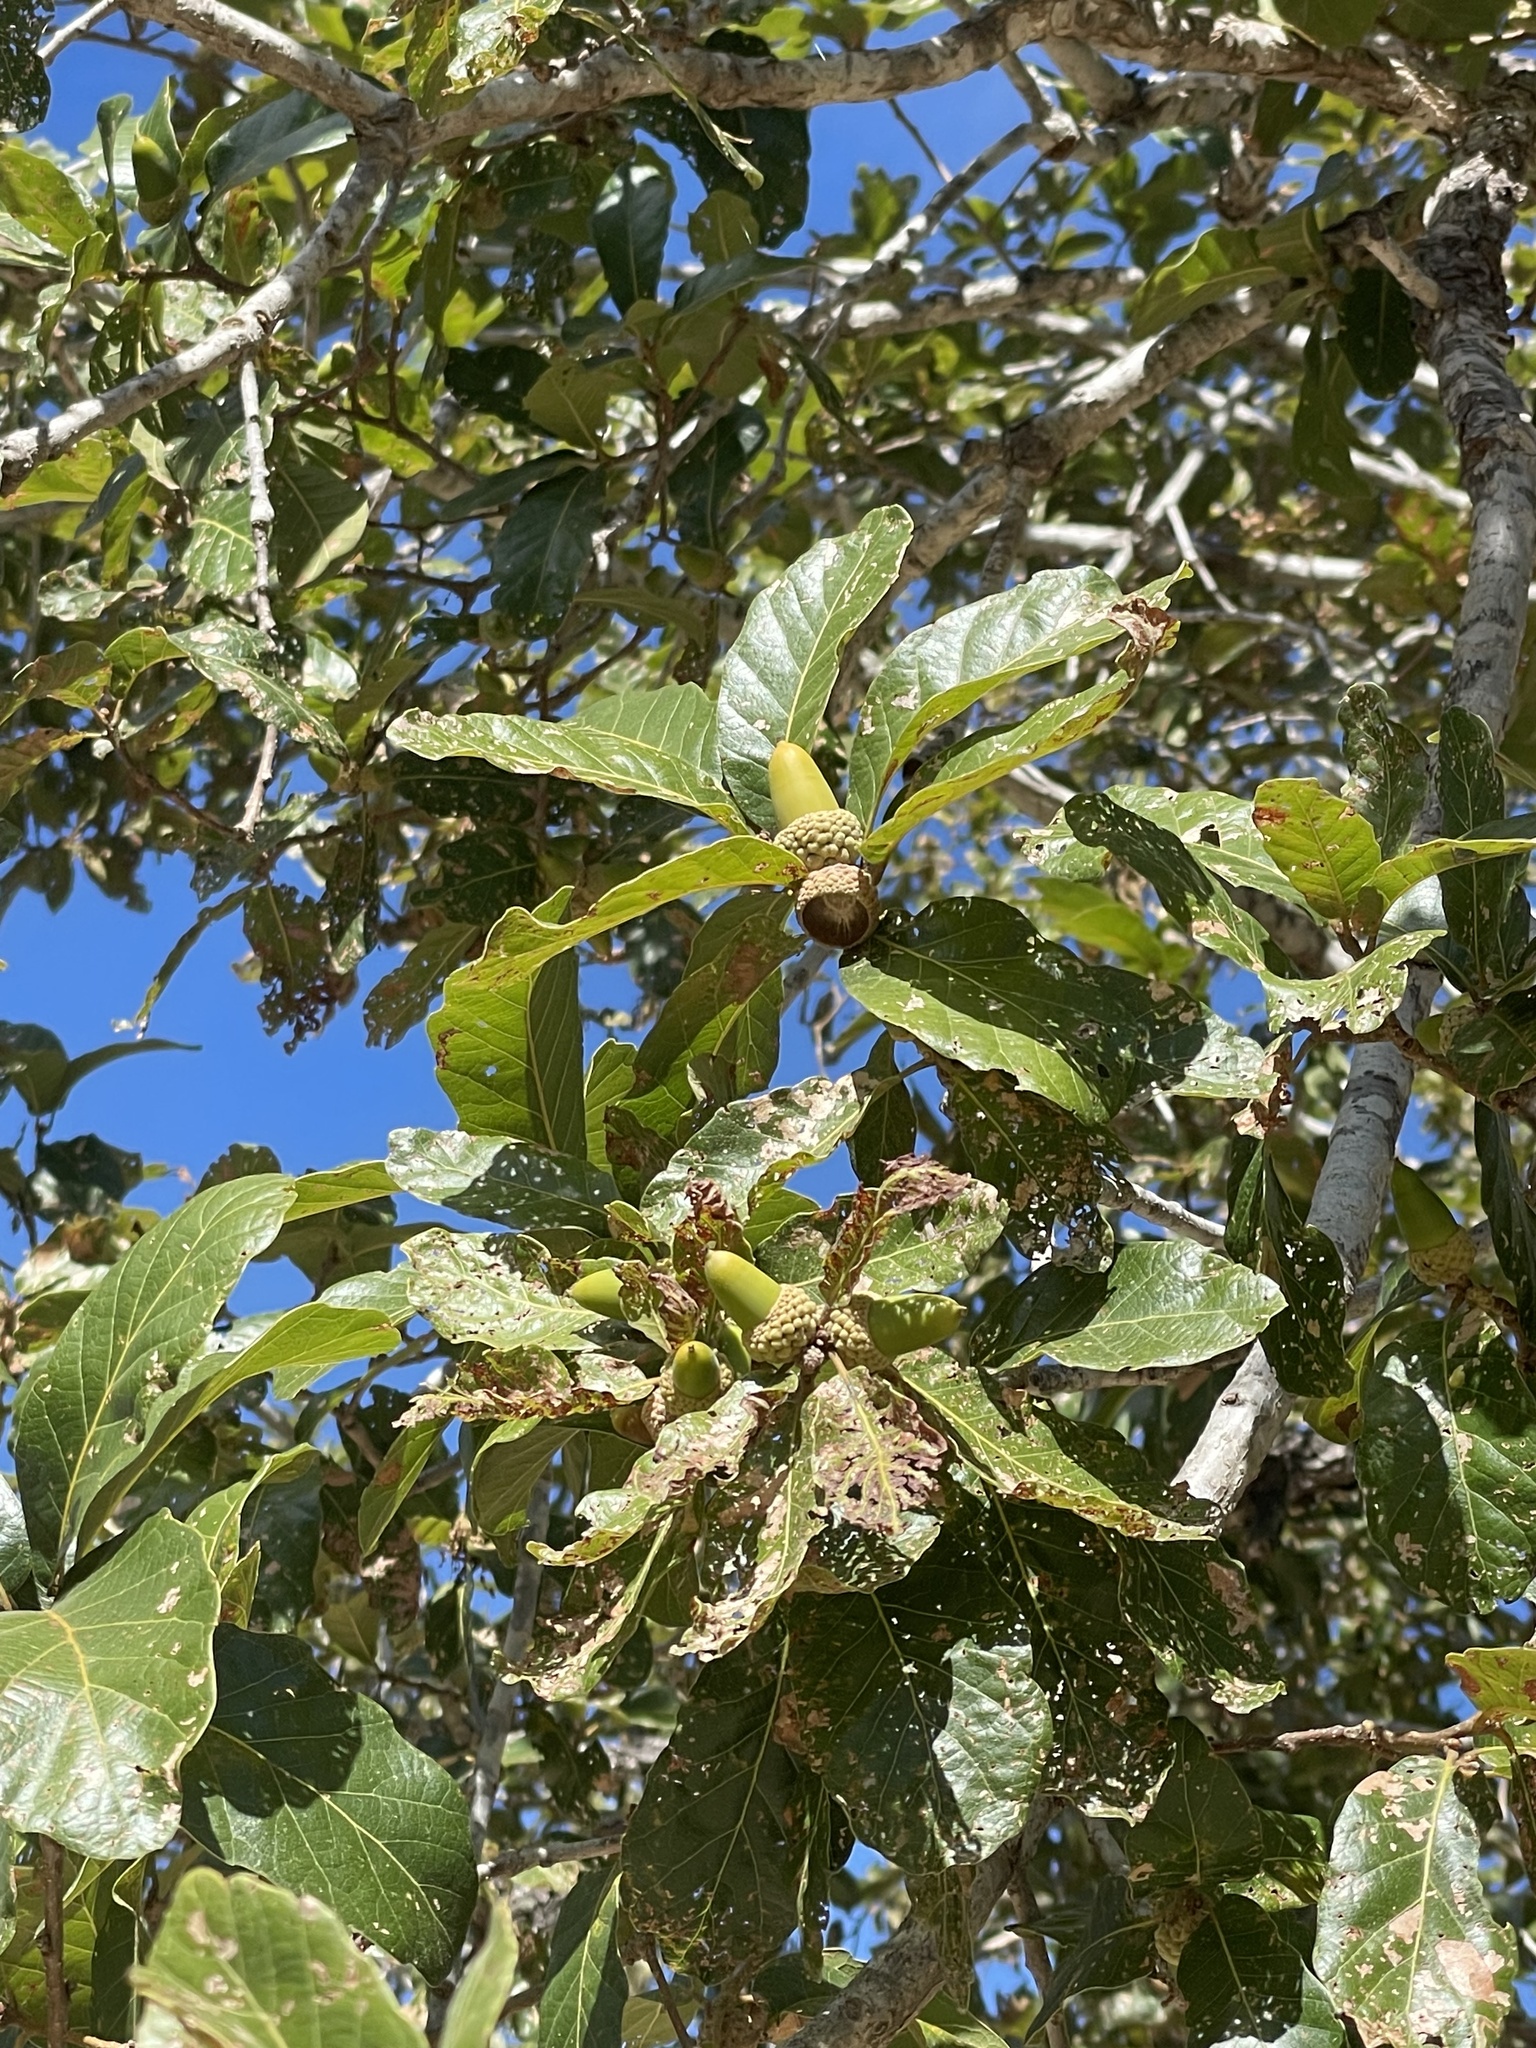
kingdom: Plantae
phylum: Tracheophyta
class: Magnoliopsida
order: Fagales
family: Fagaceae
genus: Quercus
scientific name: Quercus tuberculata
